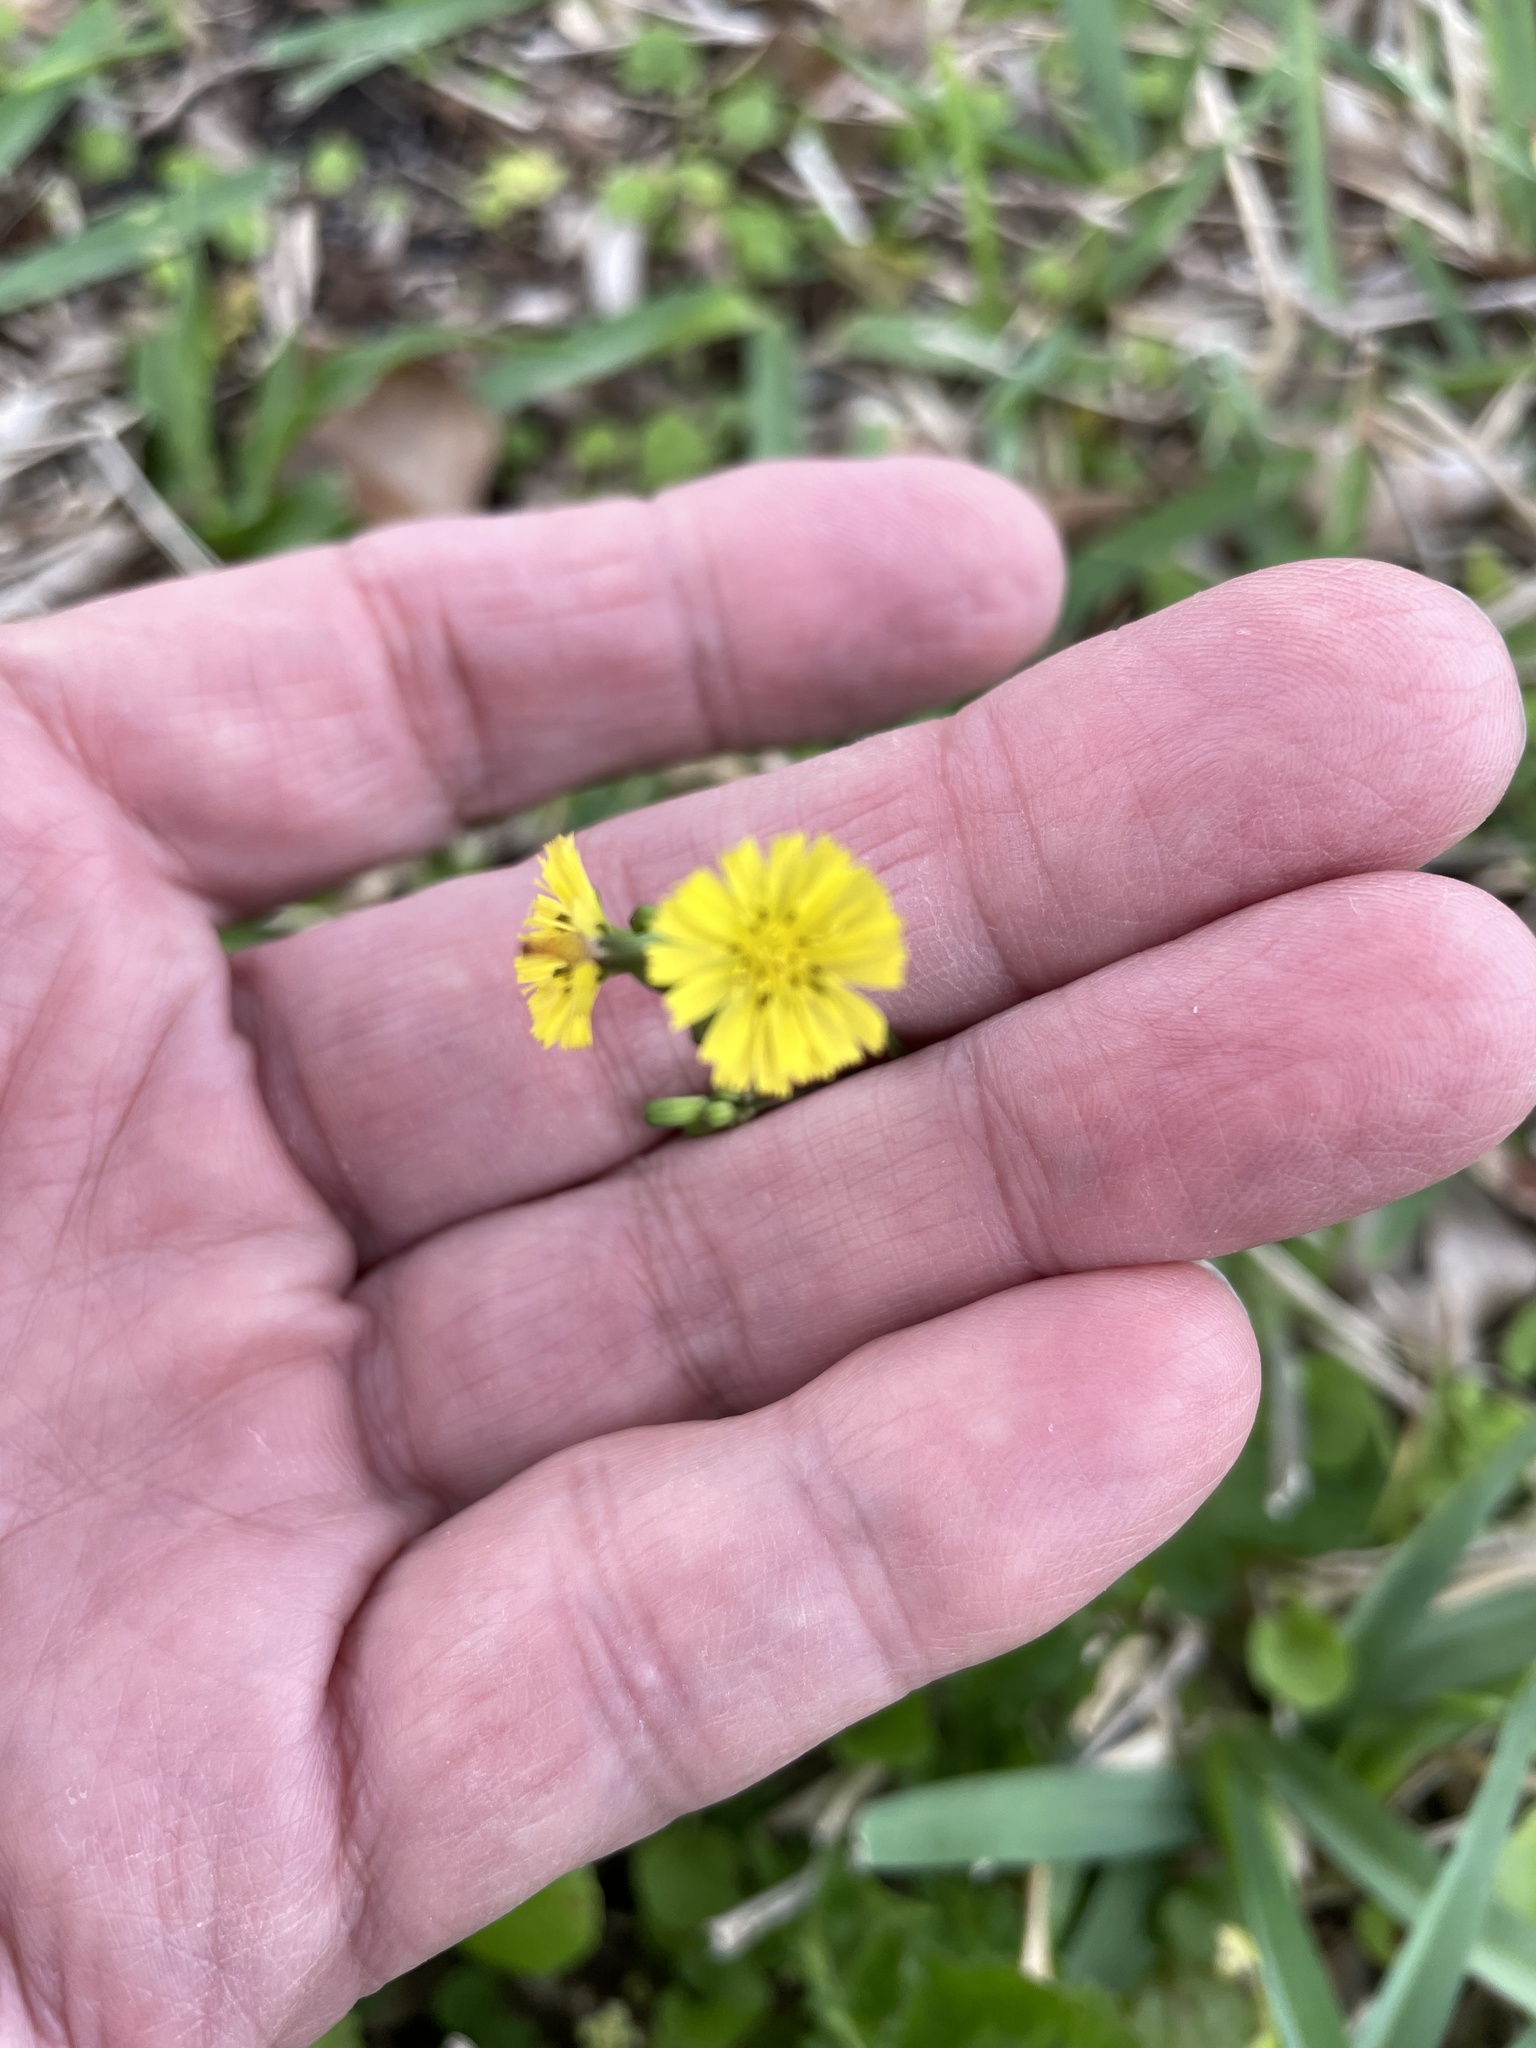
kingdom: Plantae
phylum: Tracheophyta
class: Magnoliopsida
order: Asterales
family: Asteraceae
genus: Youngia
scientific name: Youngia japonica
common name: Oriental false hawksbeard
